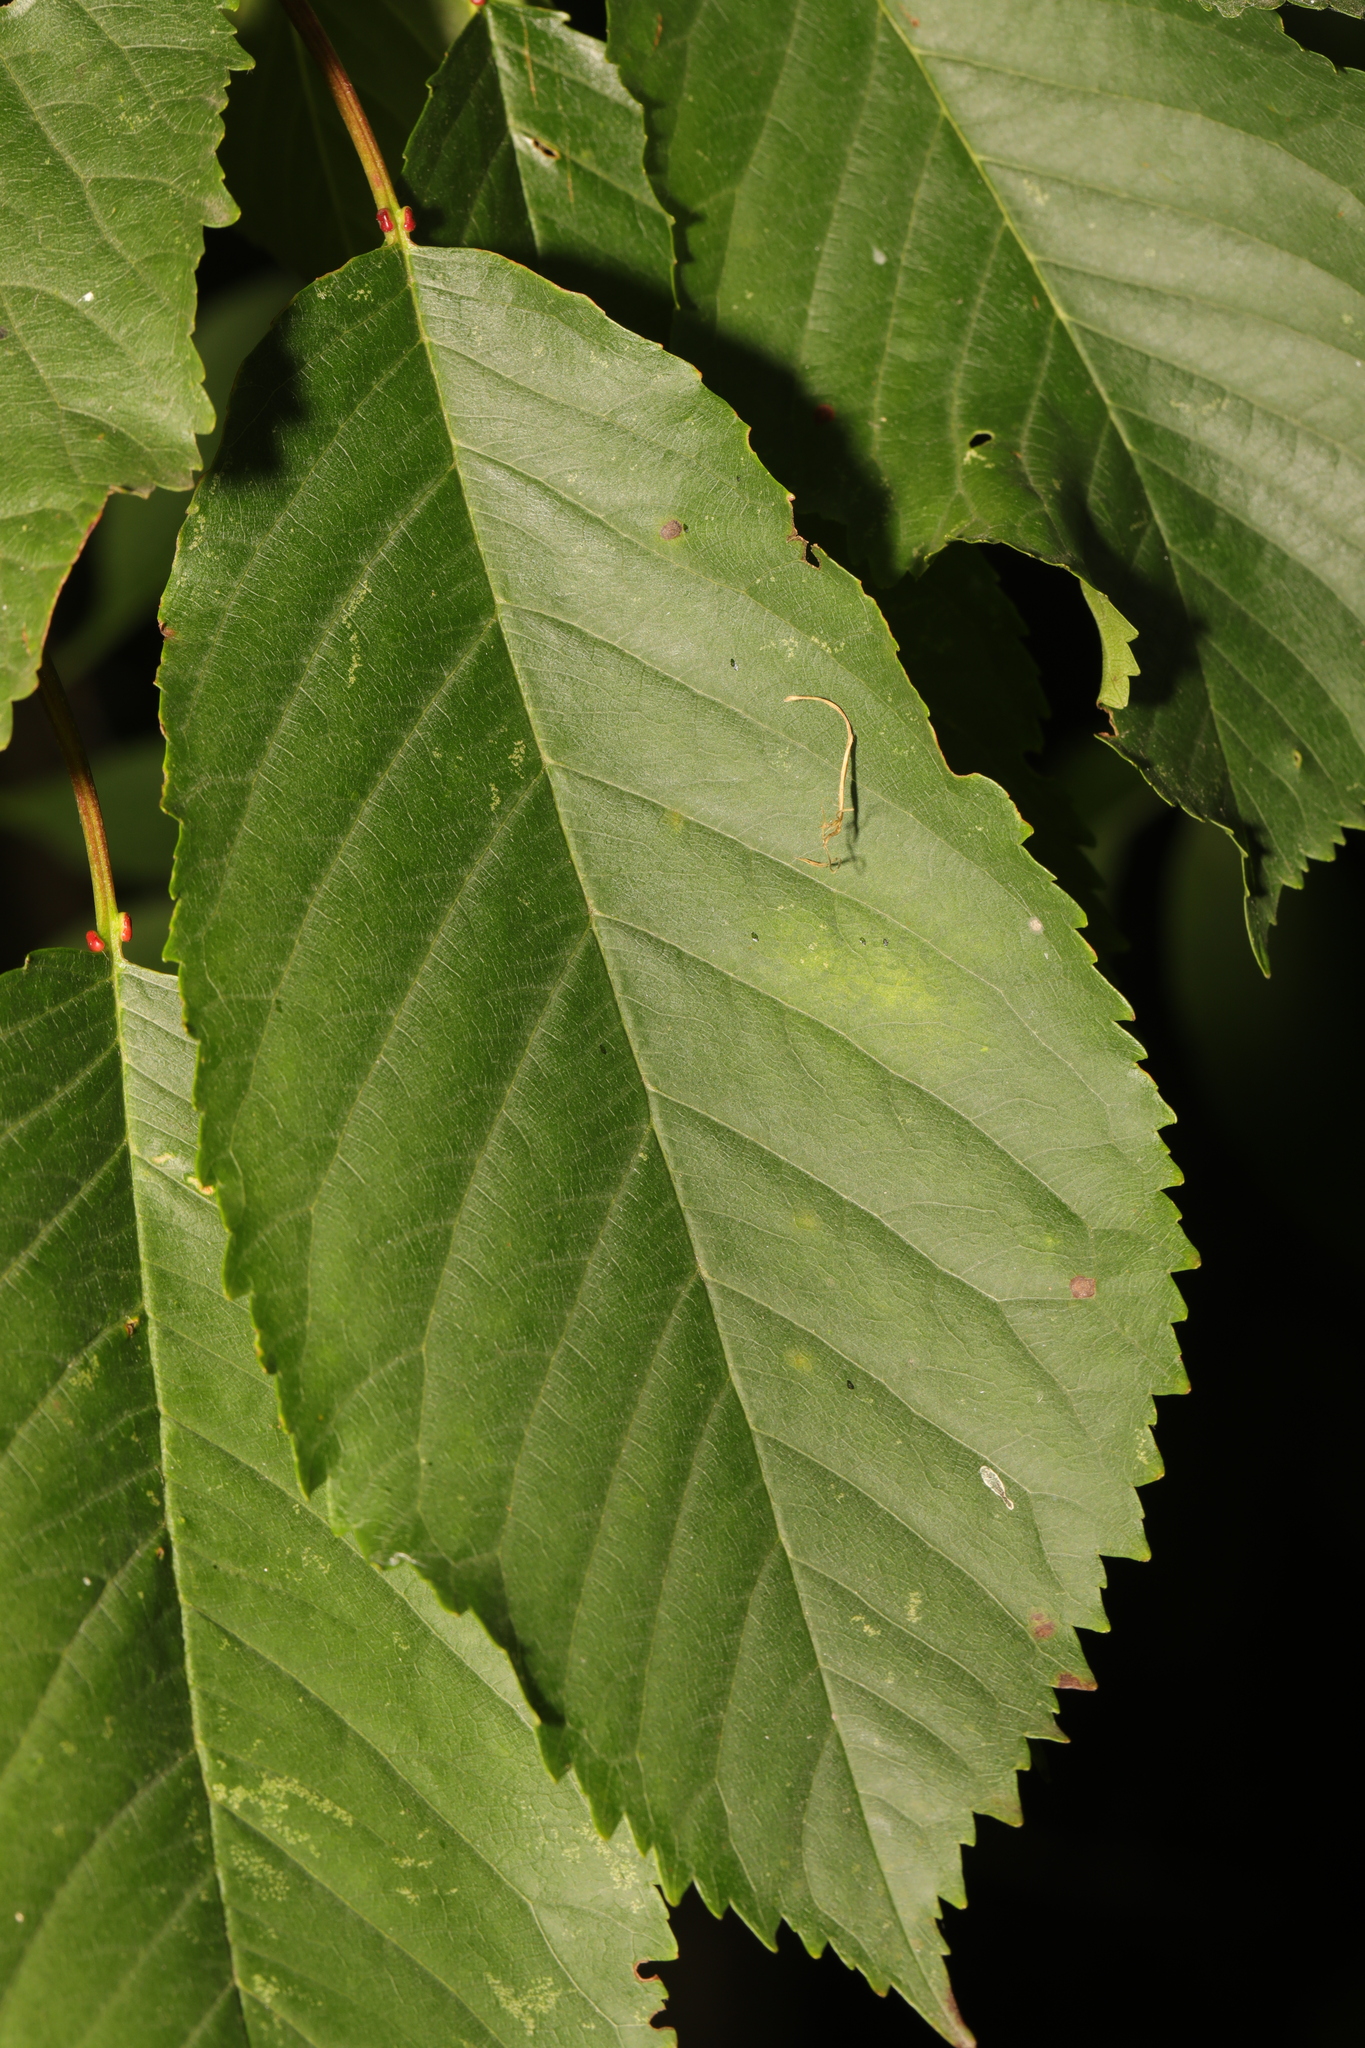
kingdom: Plantae
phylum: Tracheophyta
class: Magnoliopsida
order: Rosales
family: Rosaceae
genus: Prunus
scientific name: Prunus avium
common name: Sweet cherry
